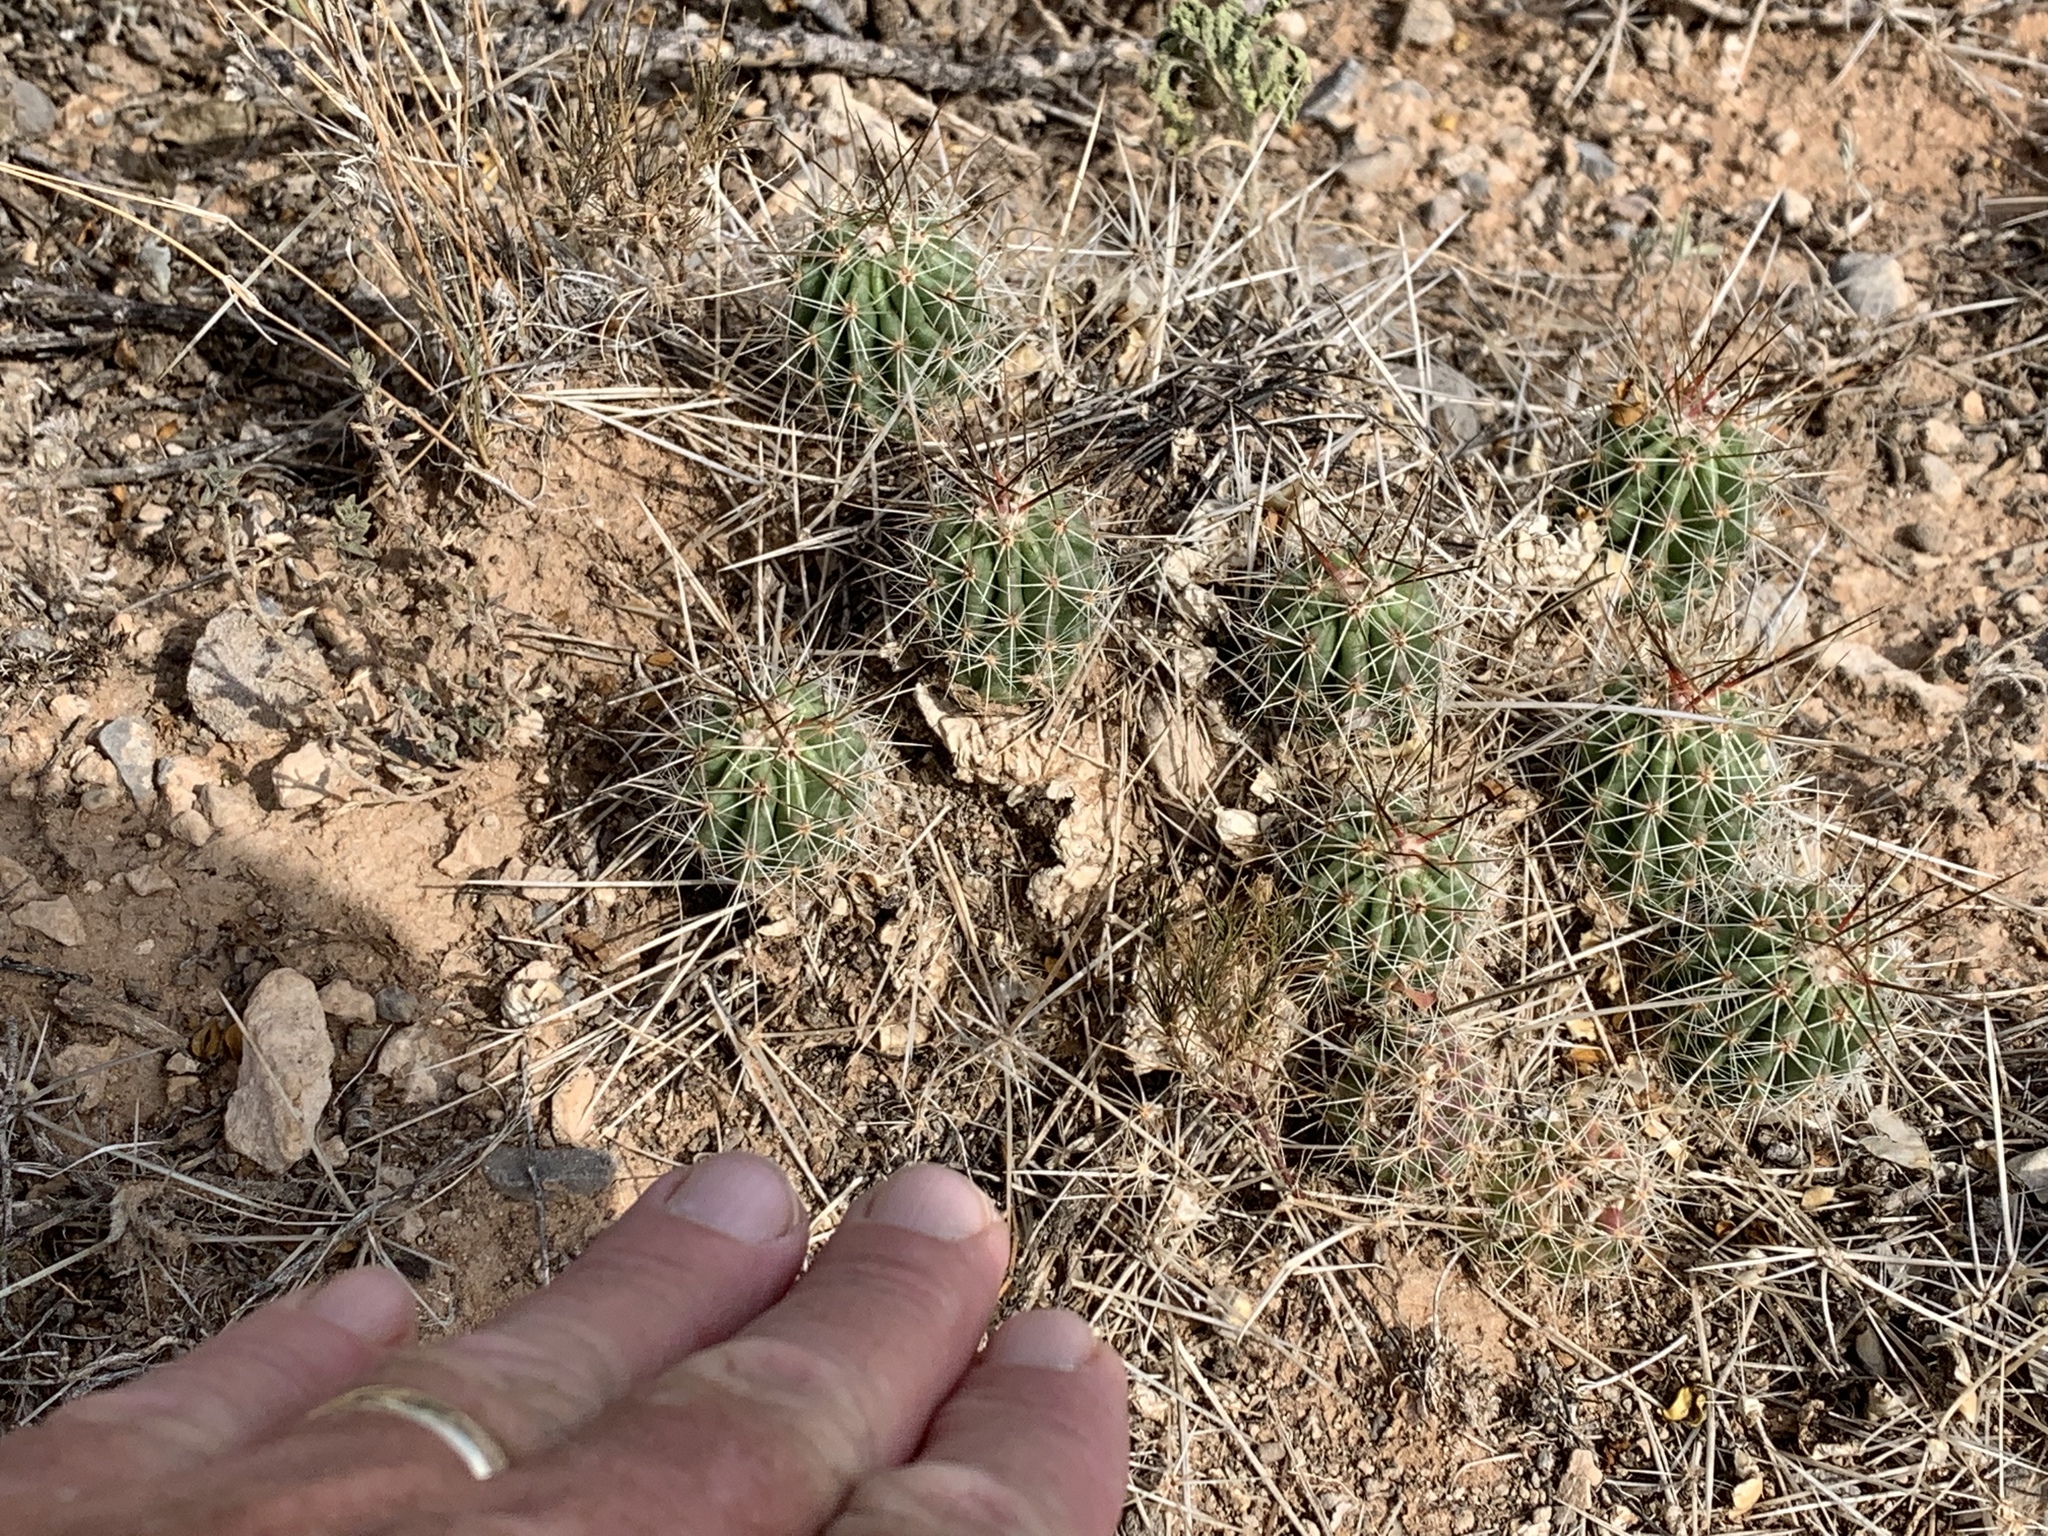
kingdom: Plantae
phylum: Tracheophyta
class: Magnoliopsida
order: Caryophyllales
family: Cactaceae
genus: Echinocereus
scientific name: Echinocereus stramineus
